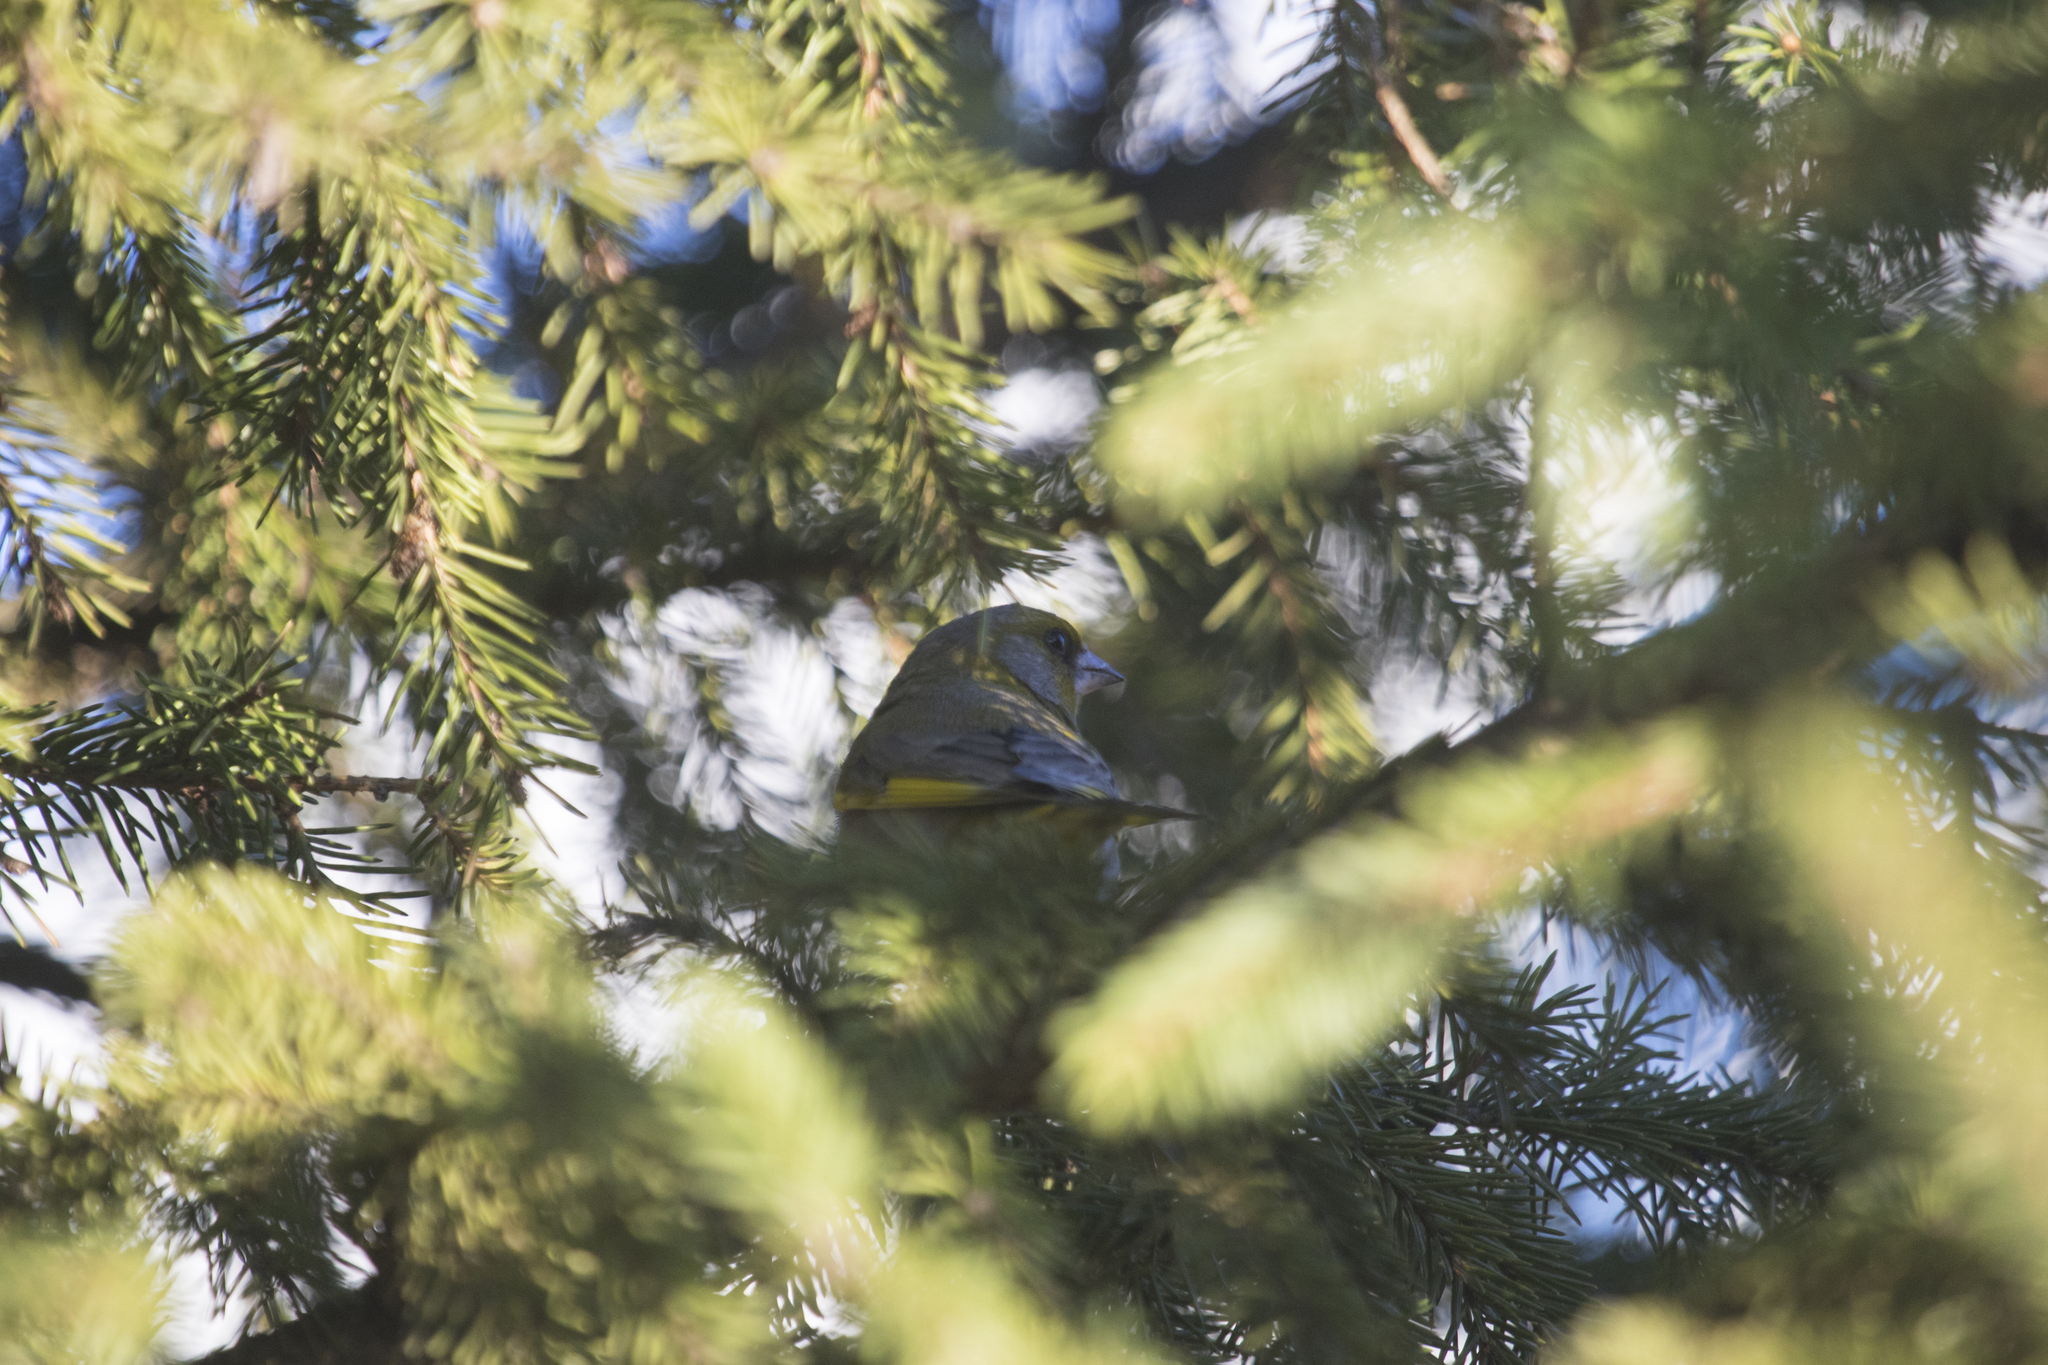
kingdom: Plantae
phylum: Tracheophyta
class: Liliopsida
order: Poales
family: Poaceae
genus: Chloris
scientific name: Chloris chloris
